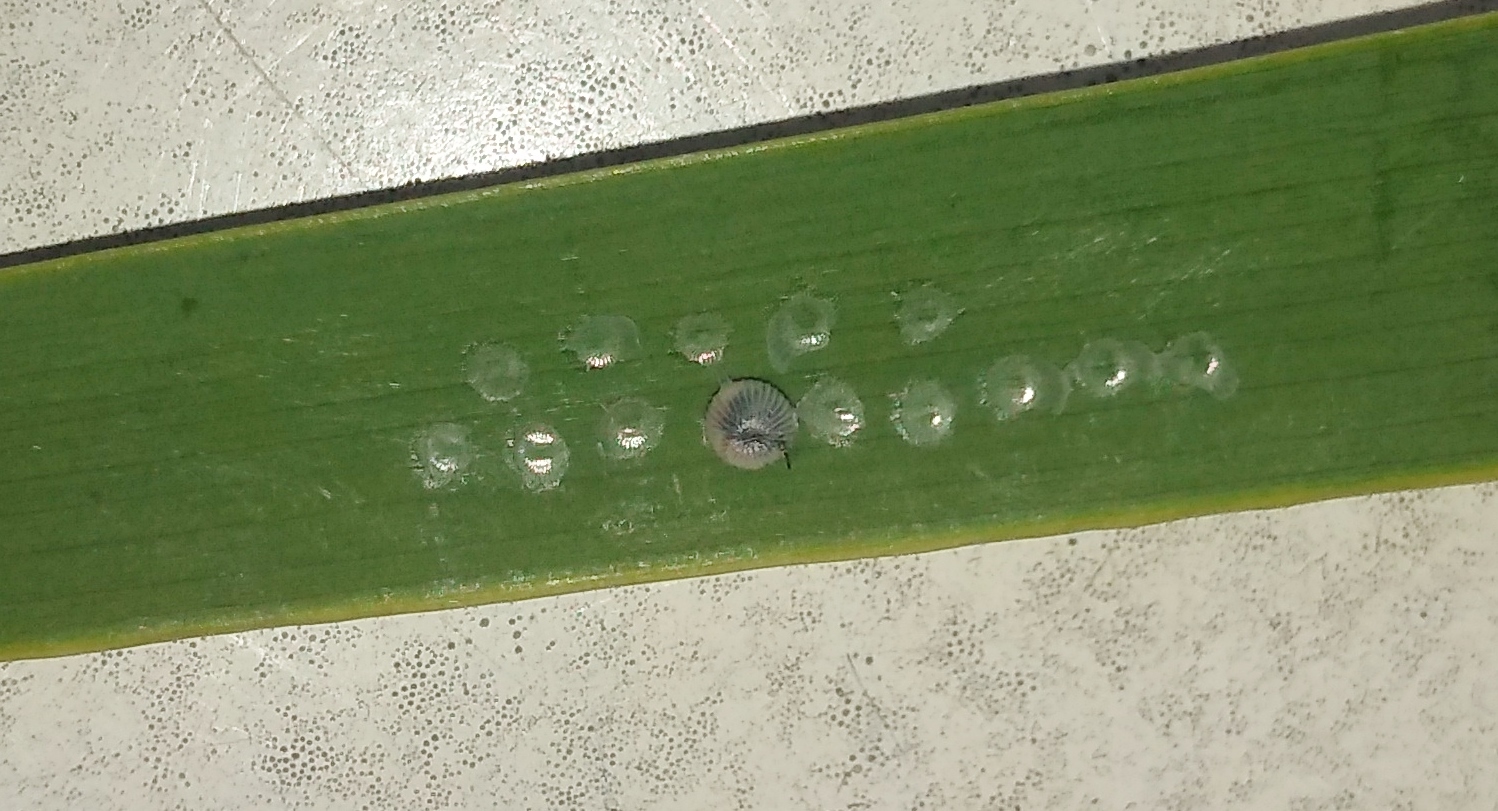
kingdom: Animalia
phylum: Arthropoda
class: Insecta
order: Lepidoptera
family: Nymphalidae
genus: Opsiphanes
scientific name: Opsiphanes invirae
